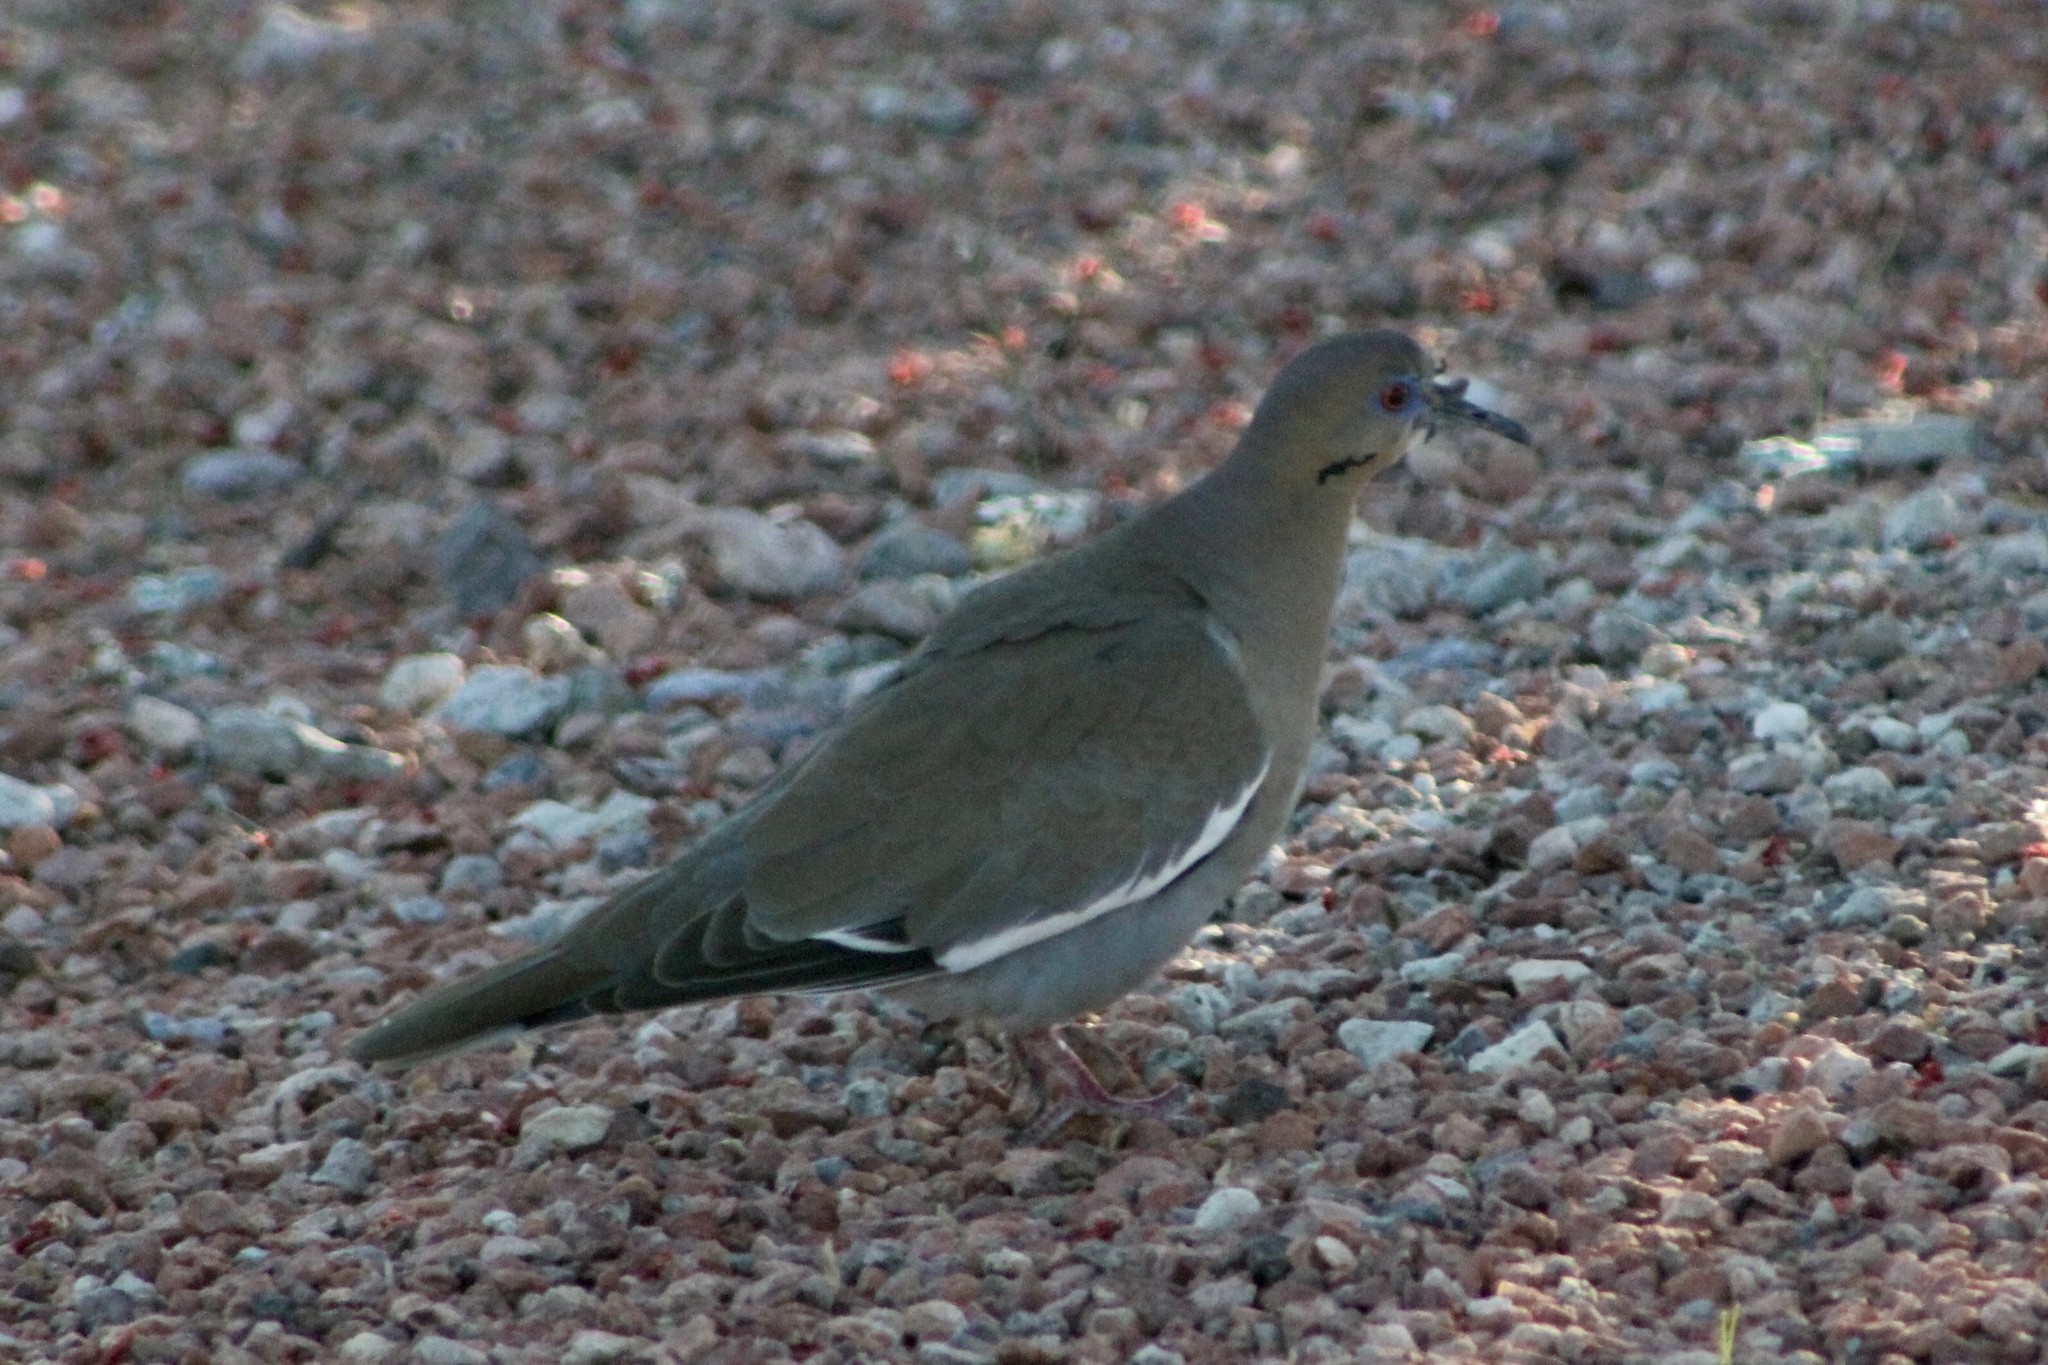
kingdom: Animalia
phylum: Chordata
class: Aves
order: Columbiformes
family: Columbidae
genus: Zenaida
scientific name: Zenaida asiatica
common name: White-winged dove
